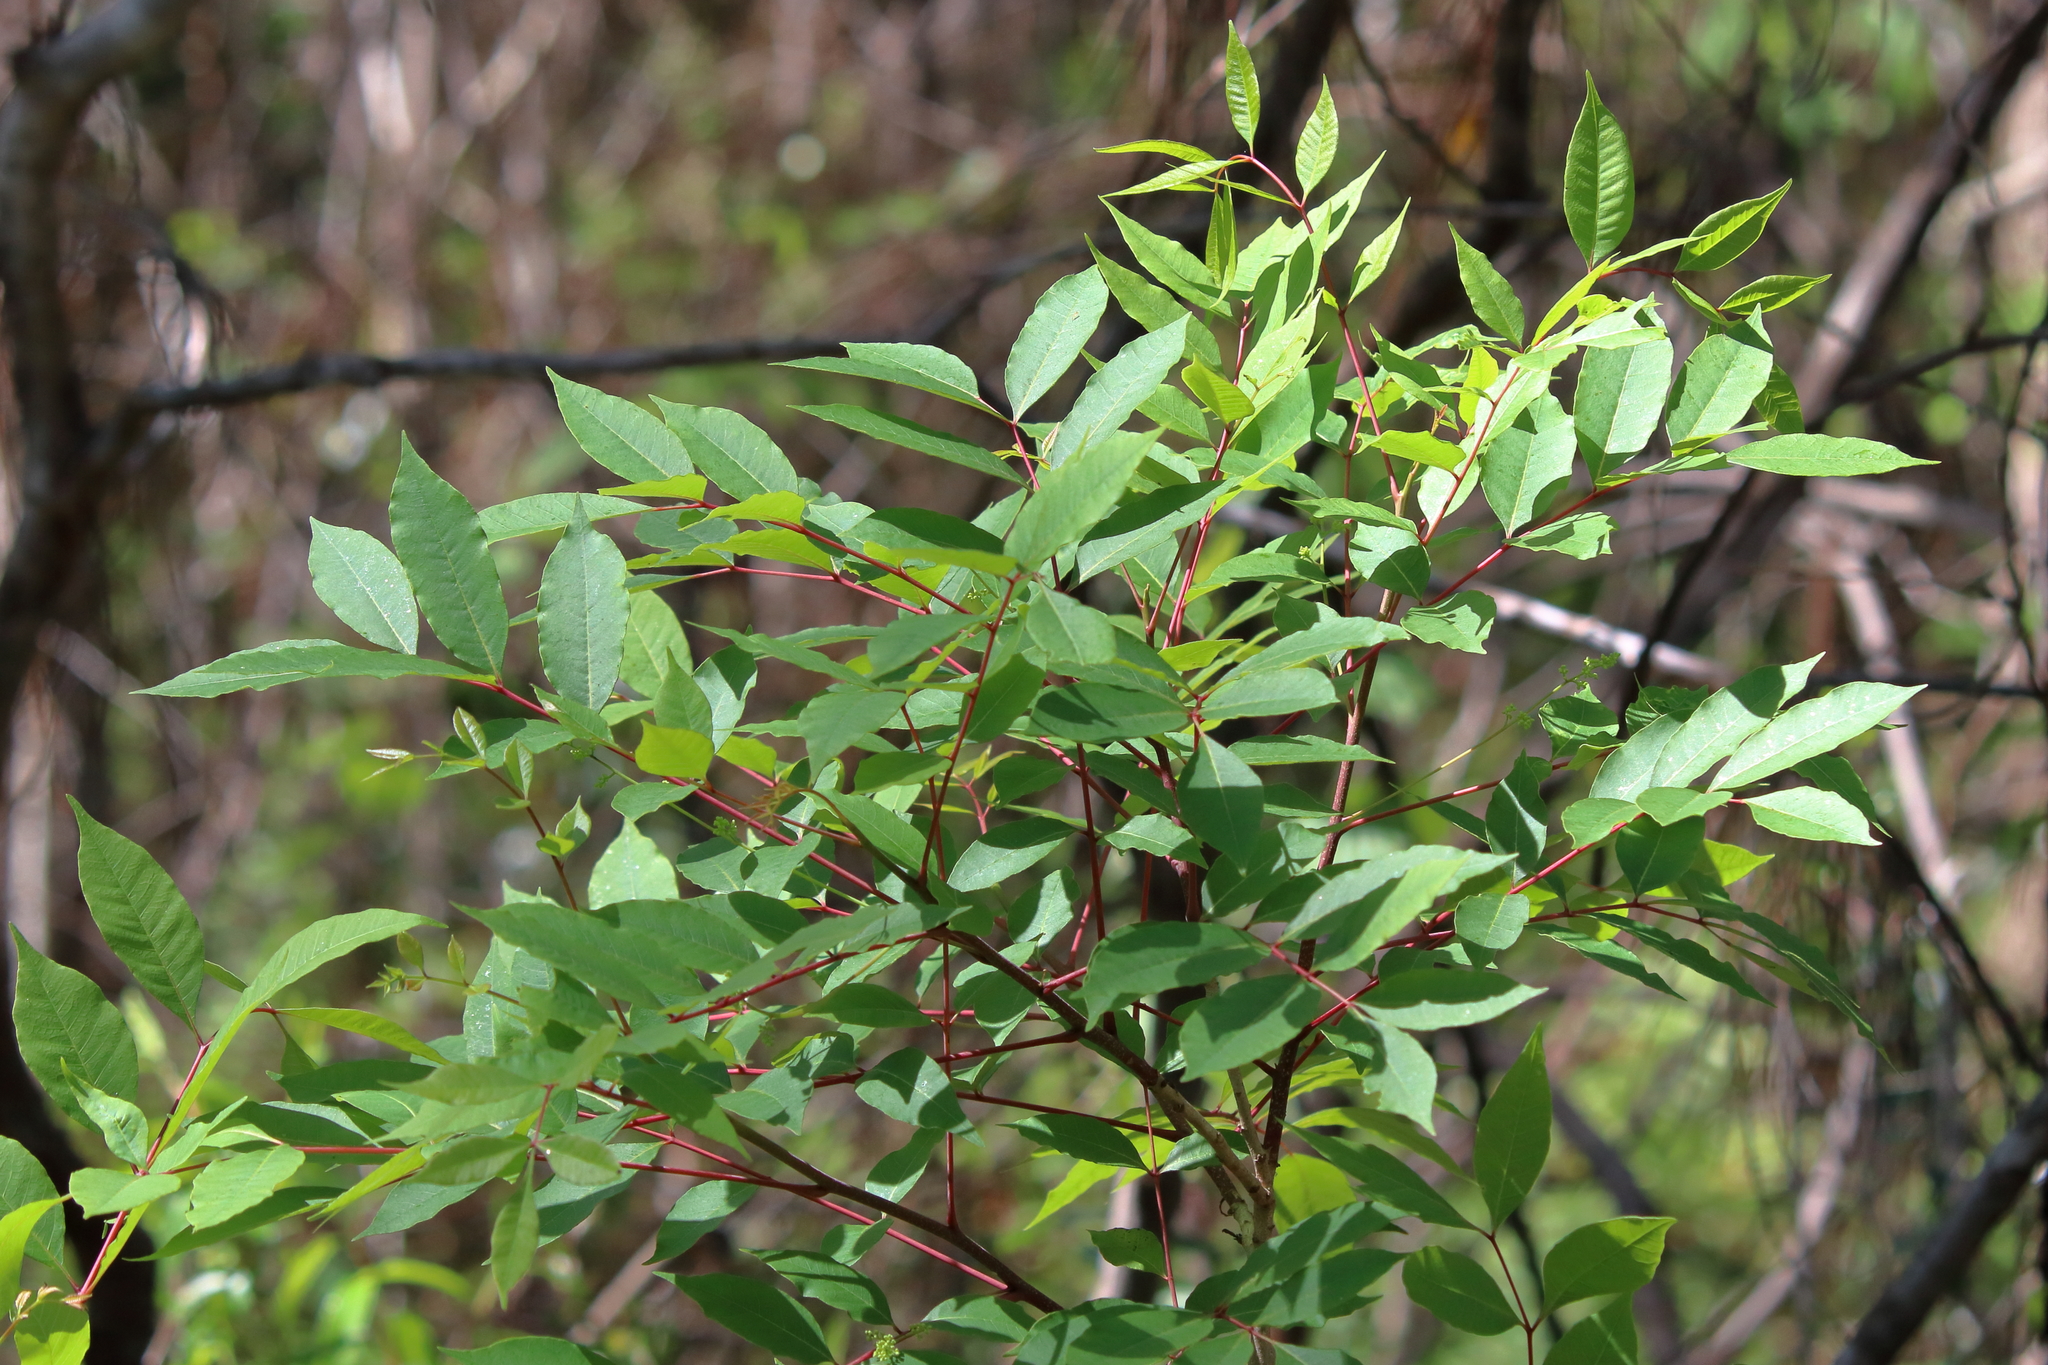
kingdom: Plantae
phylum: Tracheophyta
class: Magnoliopsida
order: Sapindales
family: Anacardiaceae
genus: Toxicodendron
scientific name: Toxicodendron vernix
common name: Poison sumac
